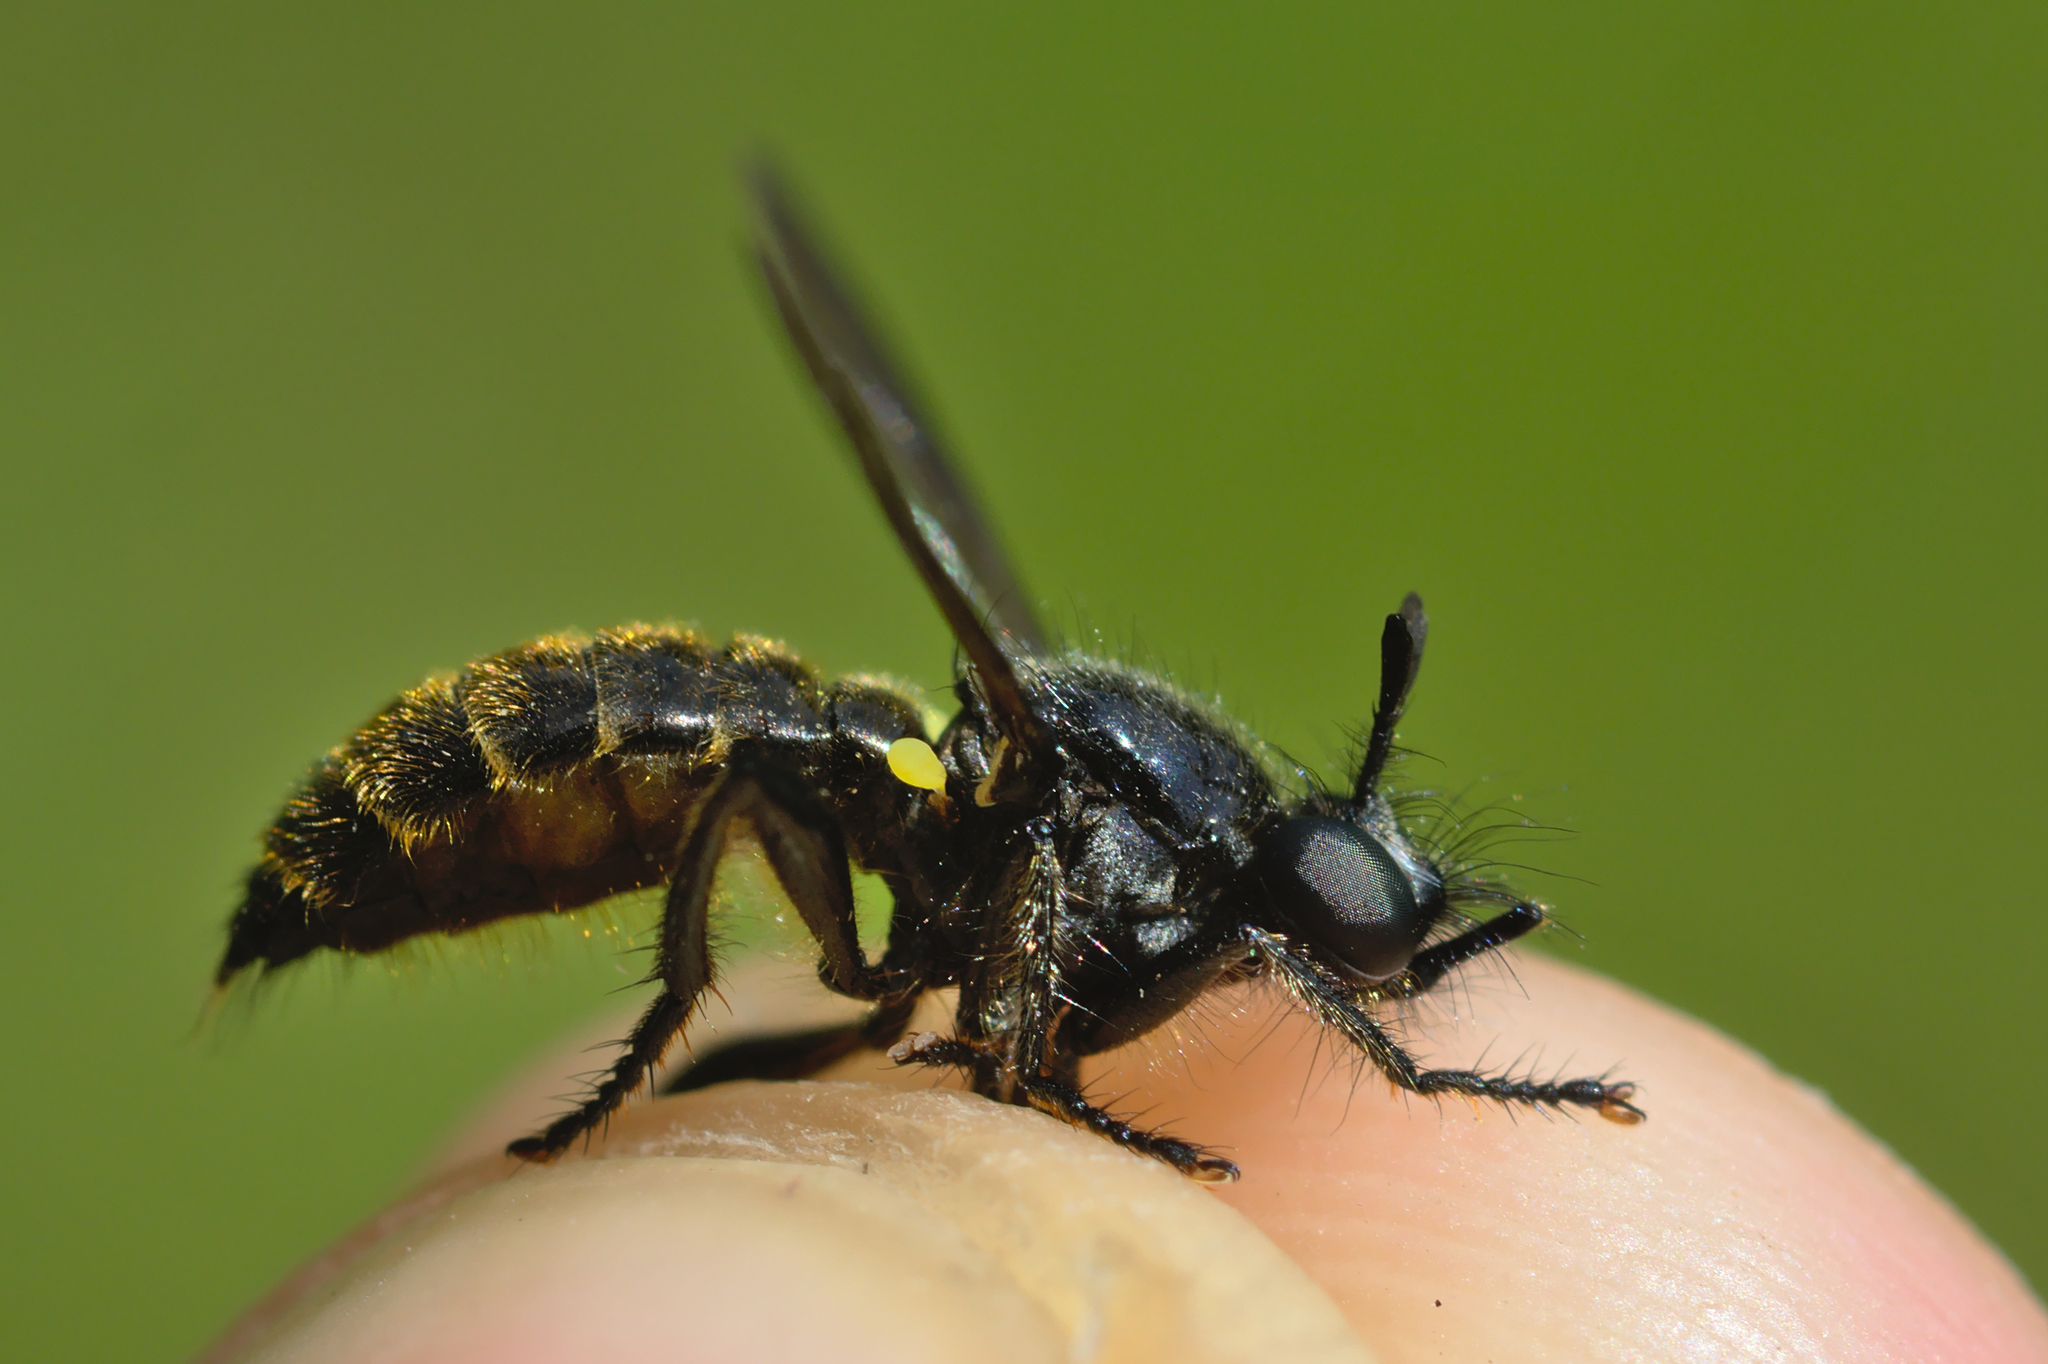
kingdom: Animalia
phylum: Arthropoda
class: Insecta
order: Diptera
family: Asilidae
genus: Lamyra
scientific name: Lamyra marginata
